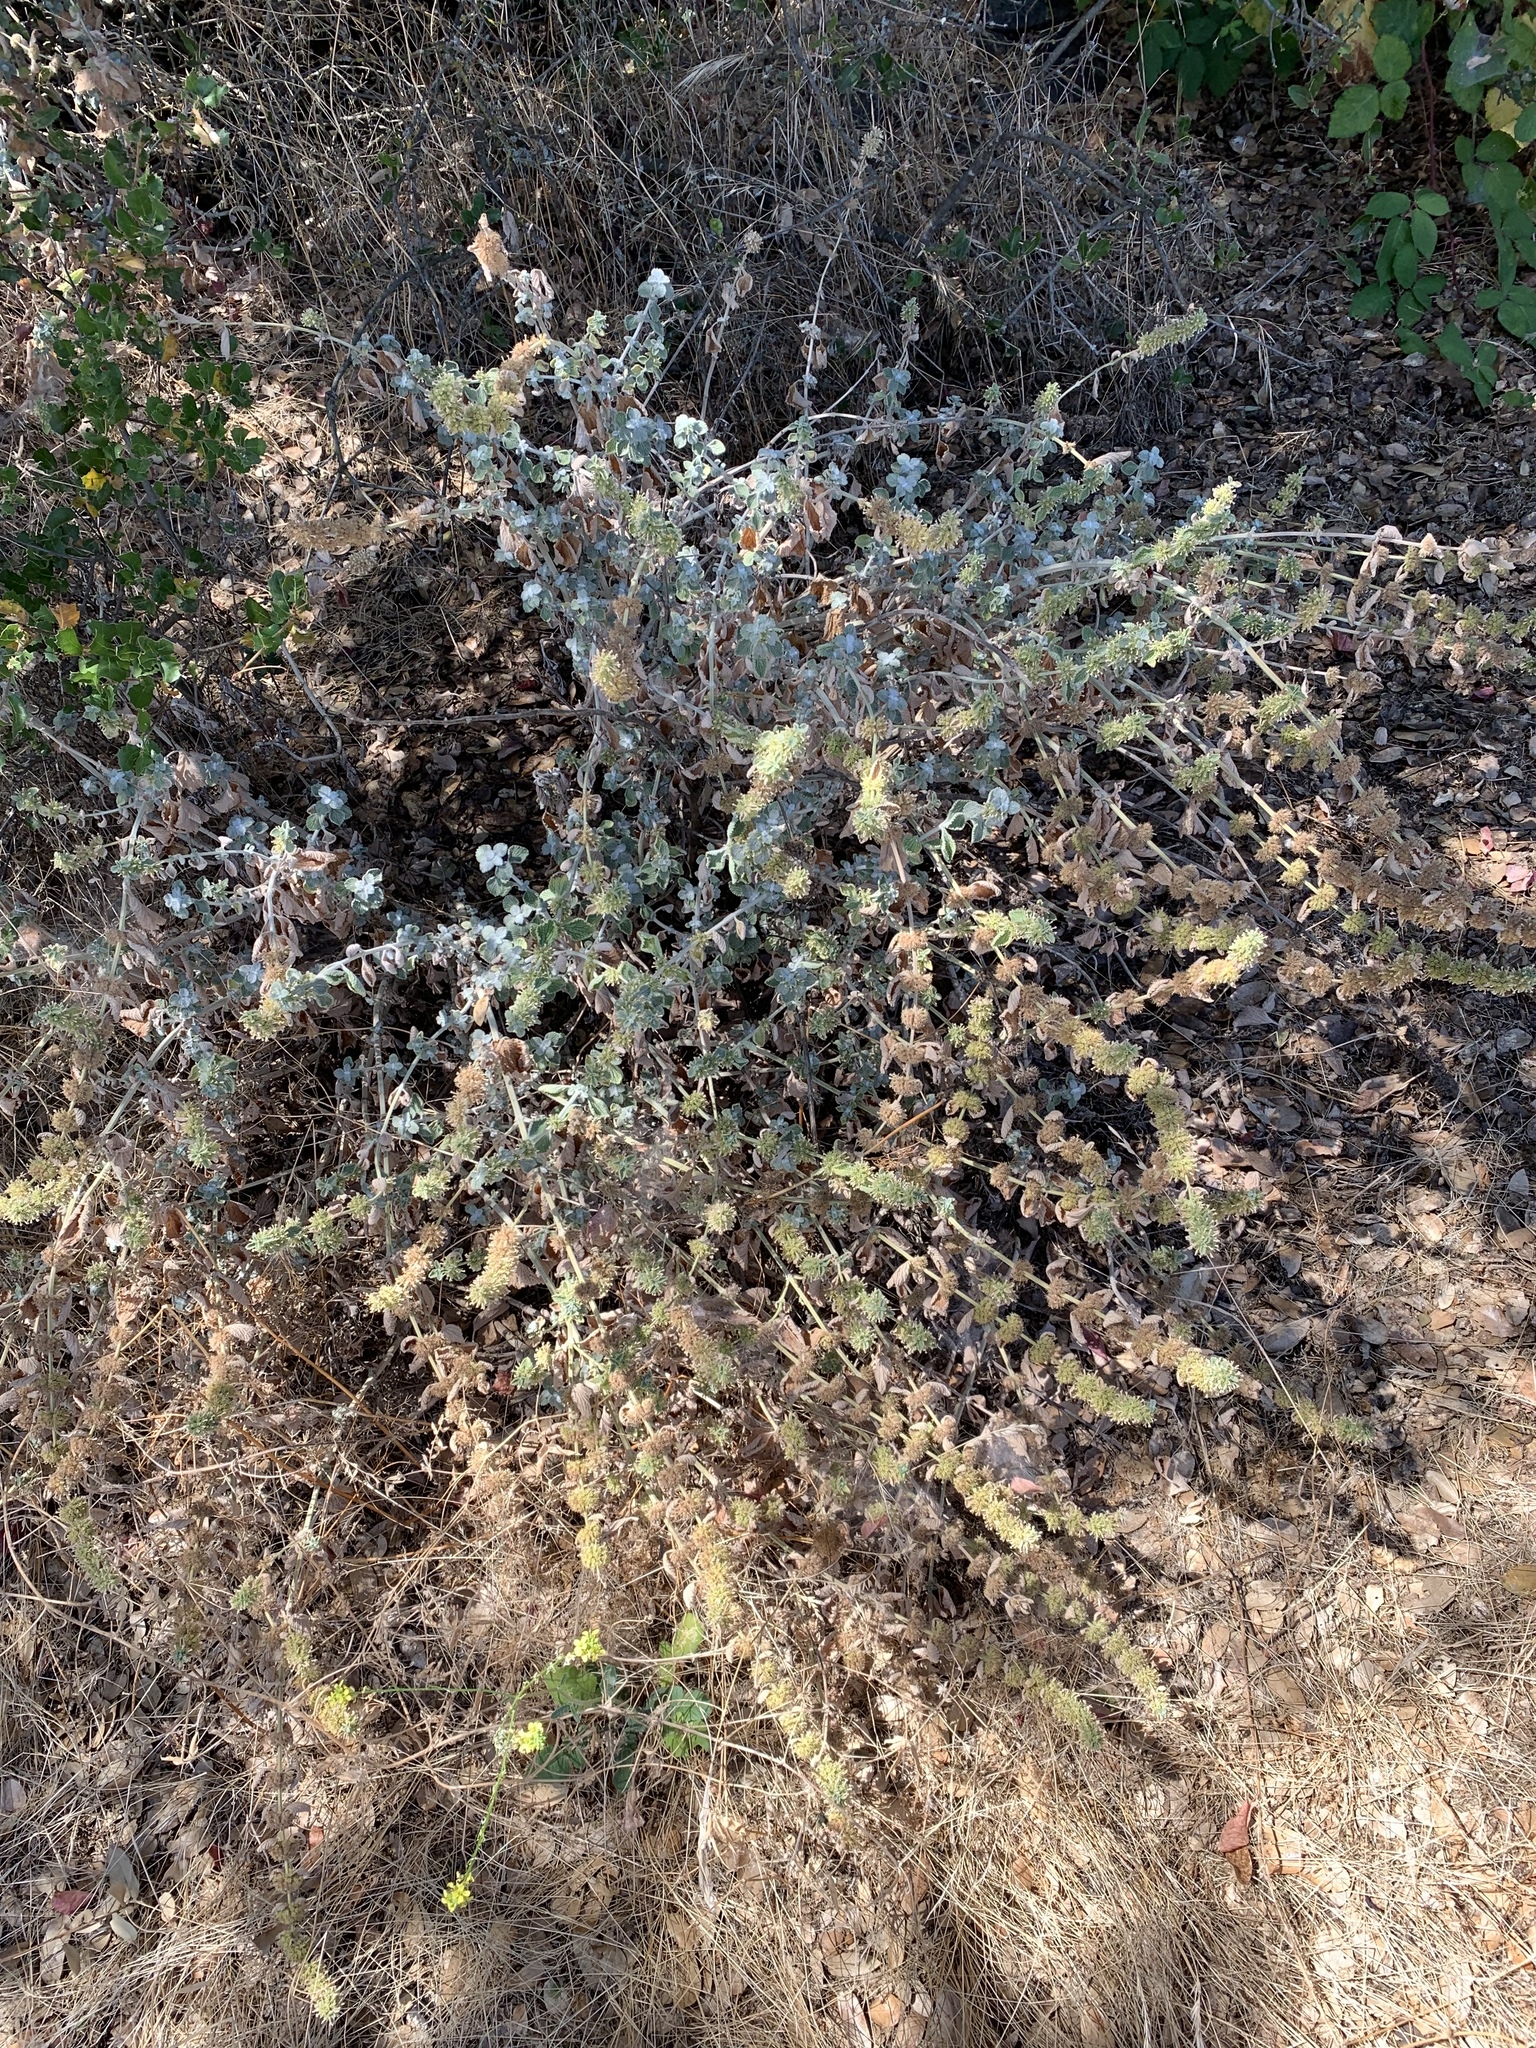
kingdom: Plantae
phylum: Tracheophyta
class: Magnoliopsida
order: Lamiales
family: Lamiaceae
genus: Marrubium
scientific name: Marrubium vulgare
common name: Horehound
